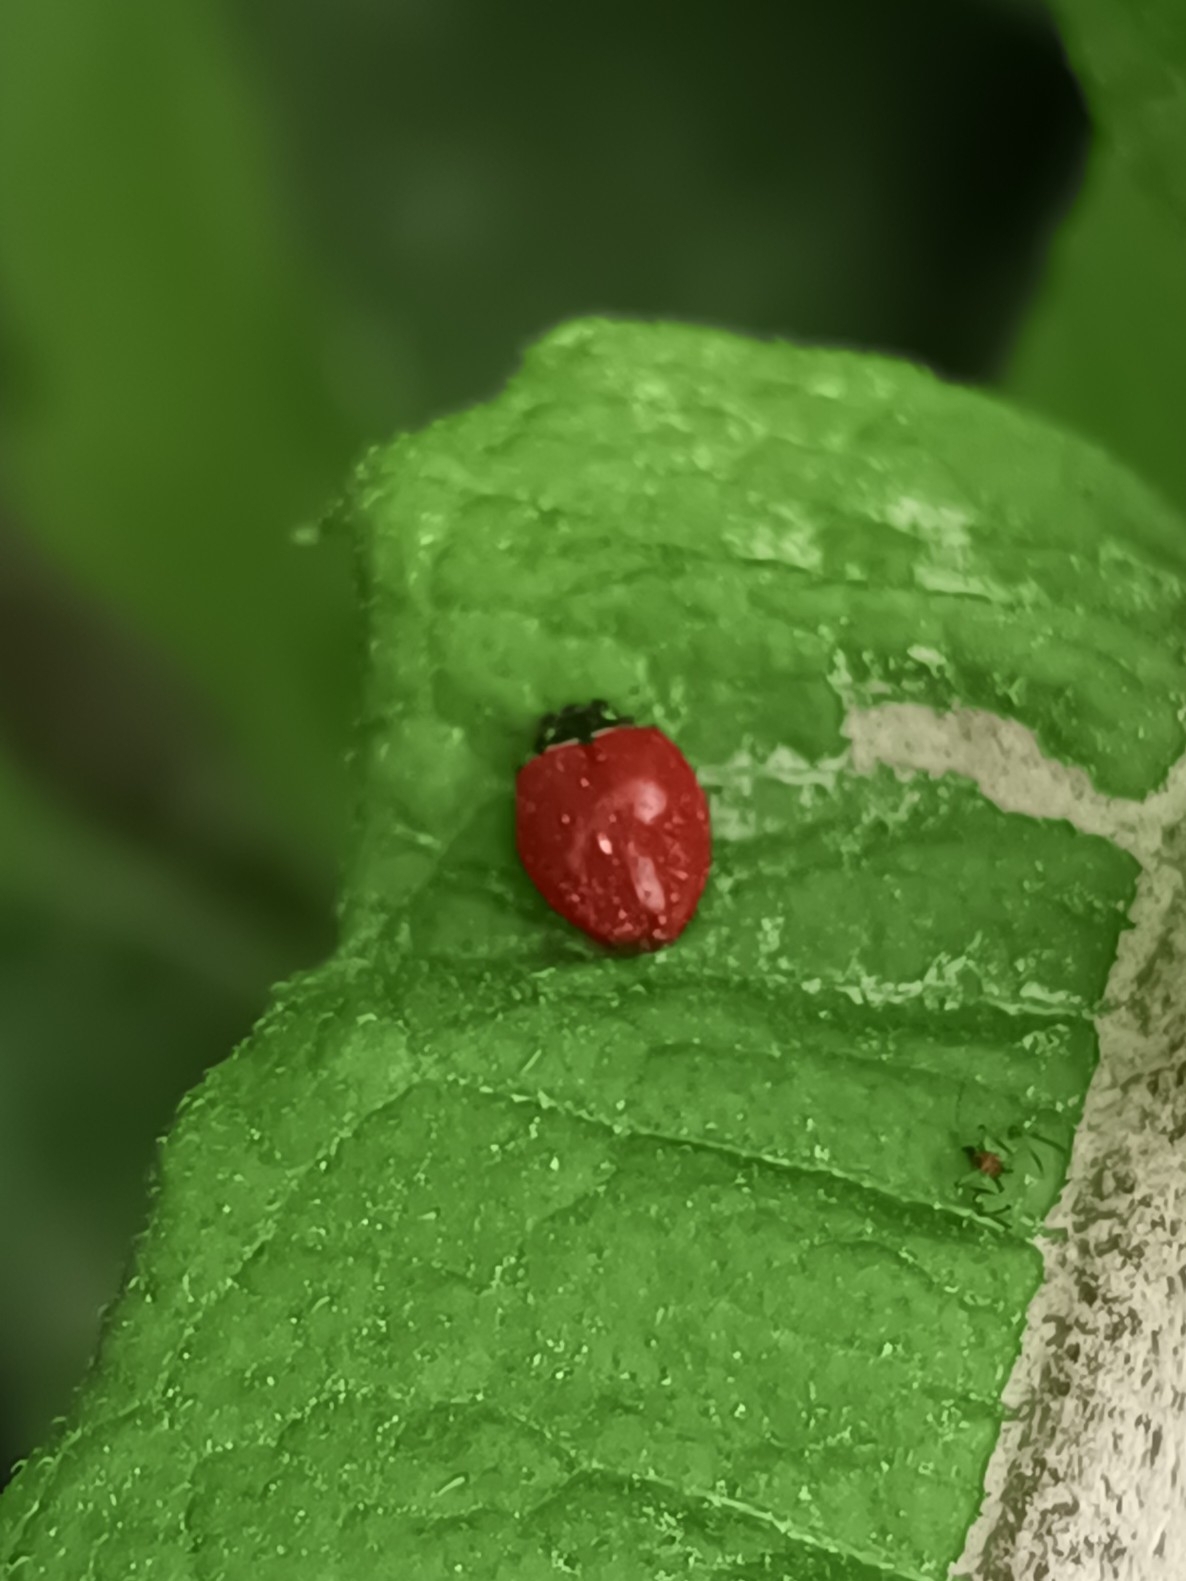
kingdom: Animalia
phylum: Arthropoda
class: Insecta
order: Coleoptera
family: Coccinellidae
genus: Cycloneda
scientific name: Cycloneda sanguinea
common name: Ladybird beetle
